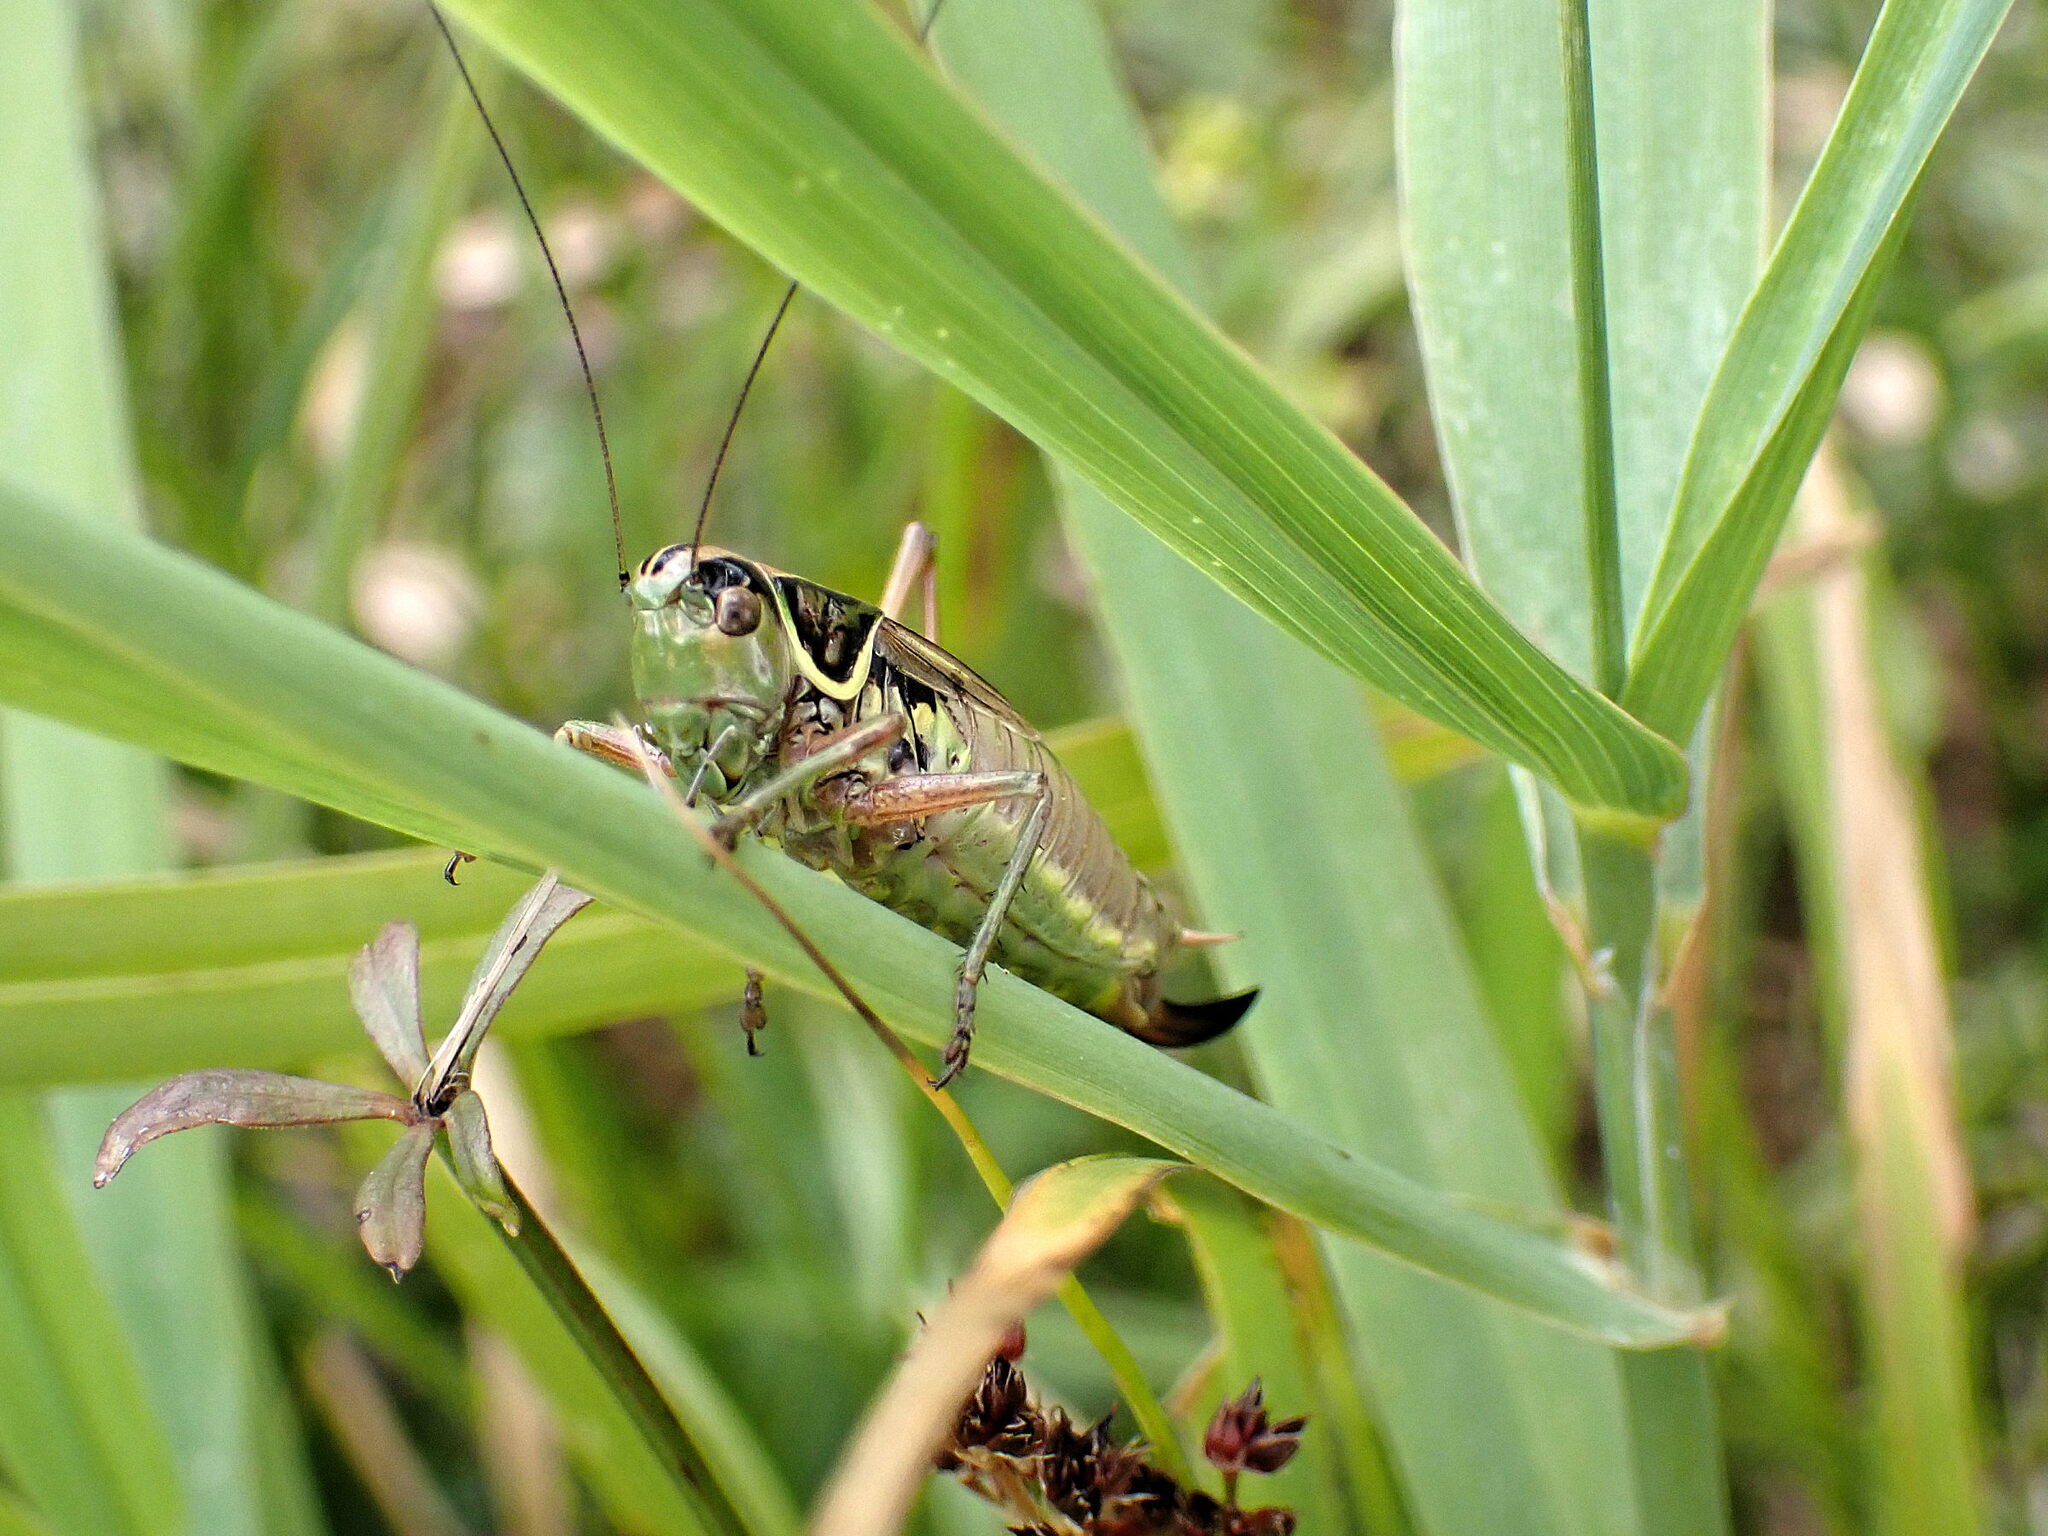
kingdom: Animalia
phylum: Arthropoda
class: Insecta
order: Orthoptera
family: Tettigoniidae
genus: Roeseliana
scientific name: Roeseliana roeselii
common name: Roesel's bush cricket
